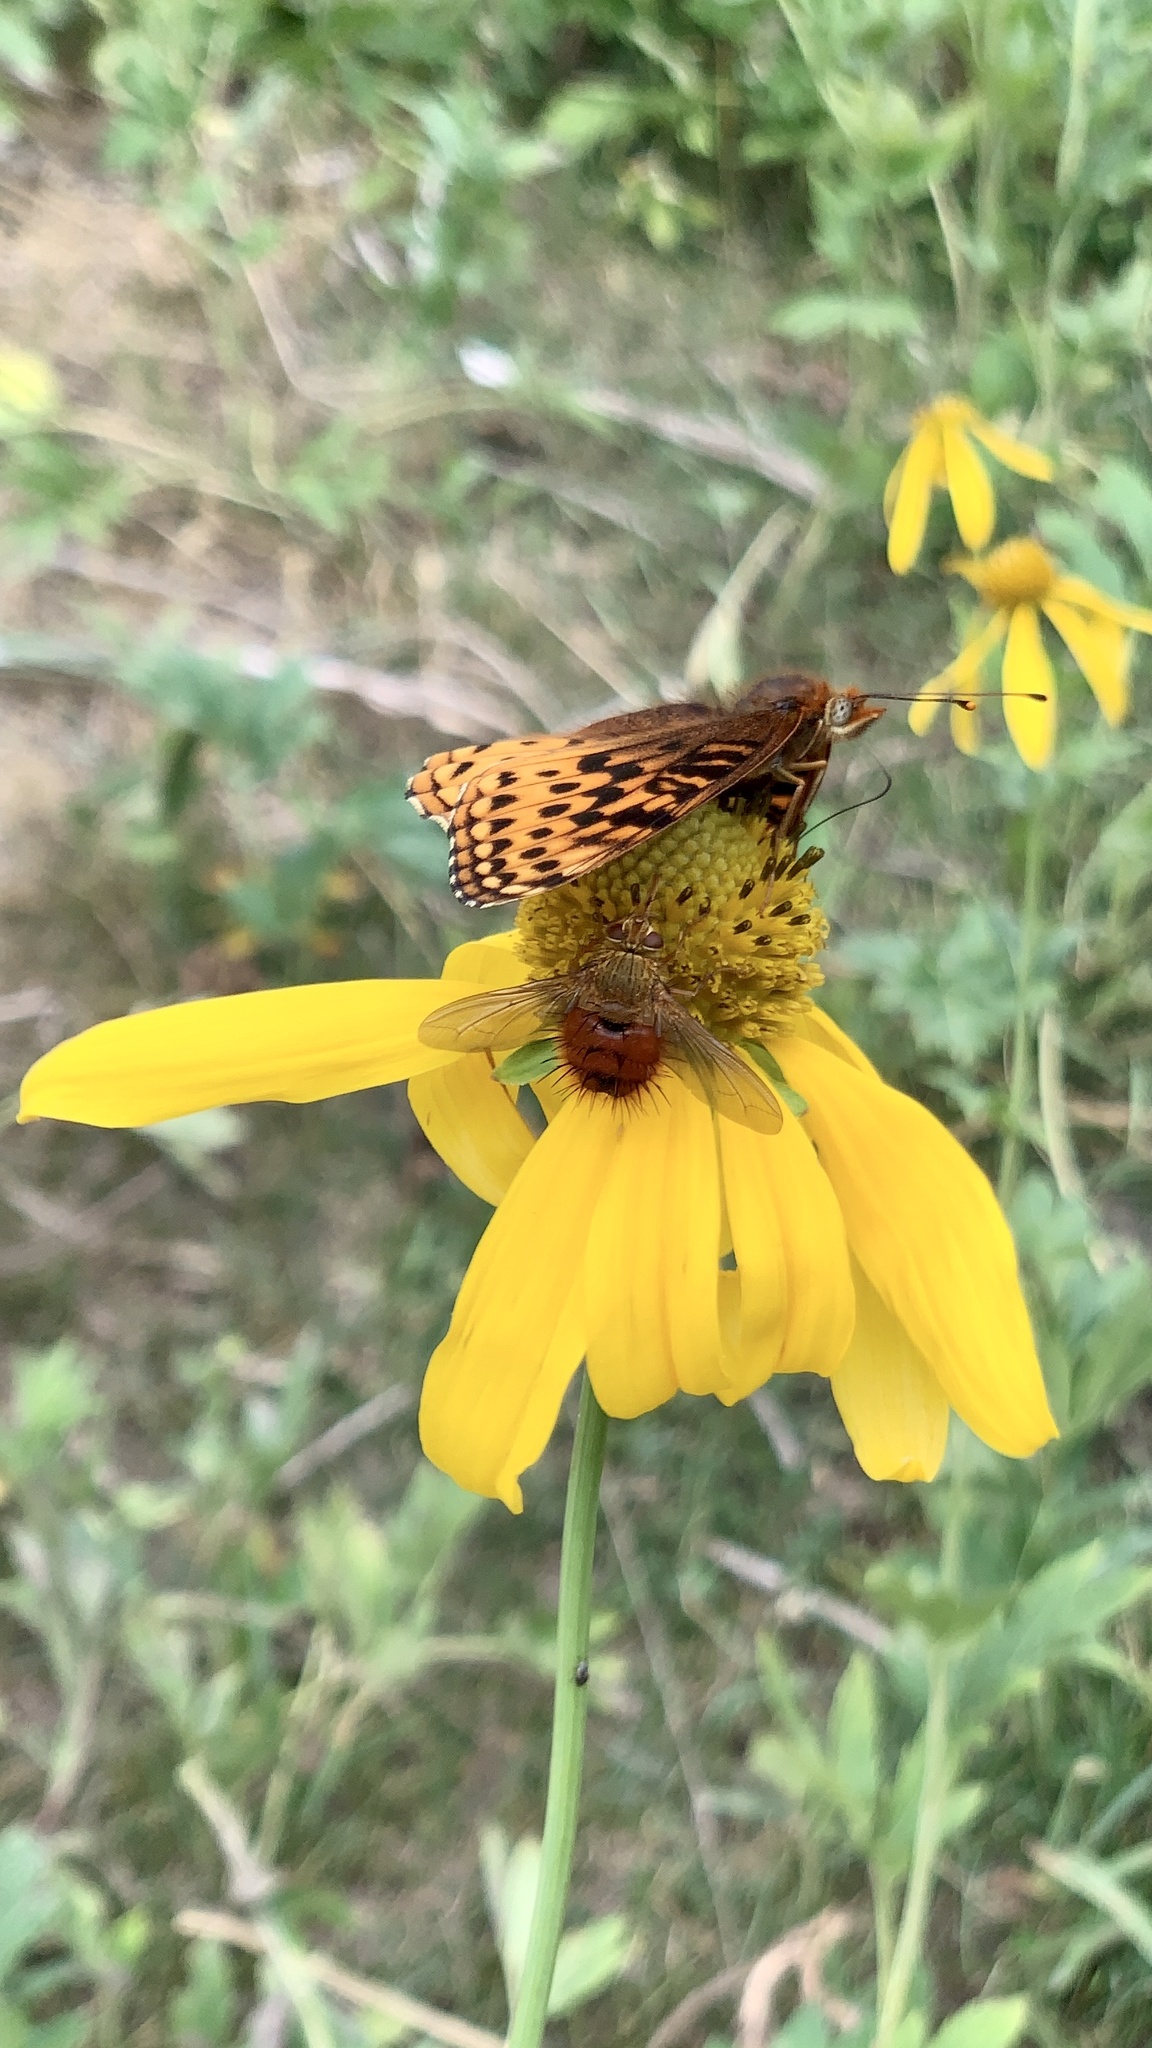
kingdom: Animalia
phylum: Arthropoda
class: Insecta
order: Diptera
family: Tachinidae
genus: Adejeania
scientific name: Adejeania vexatrix
